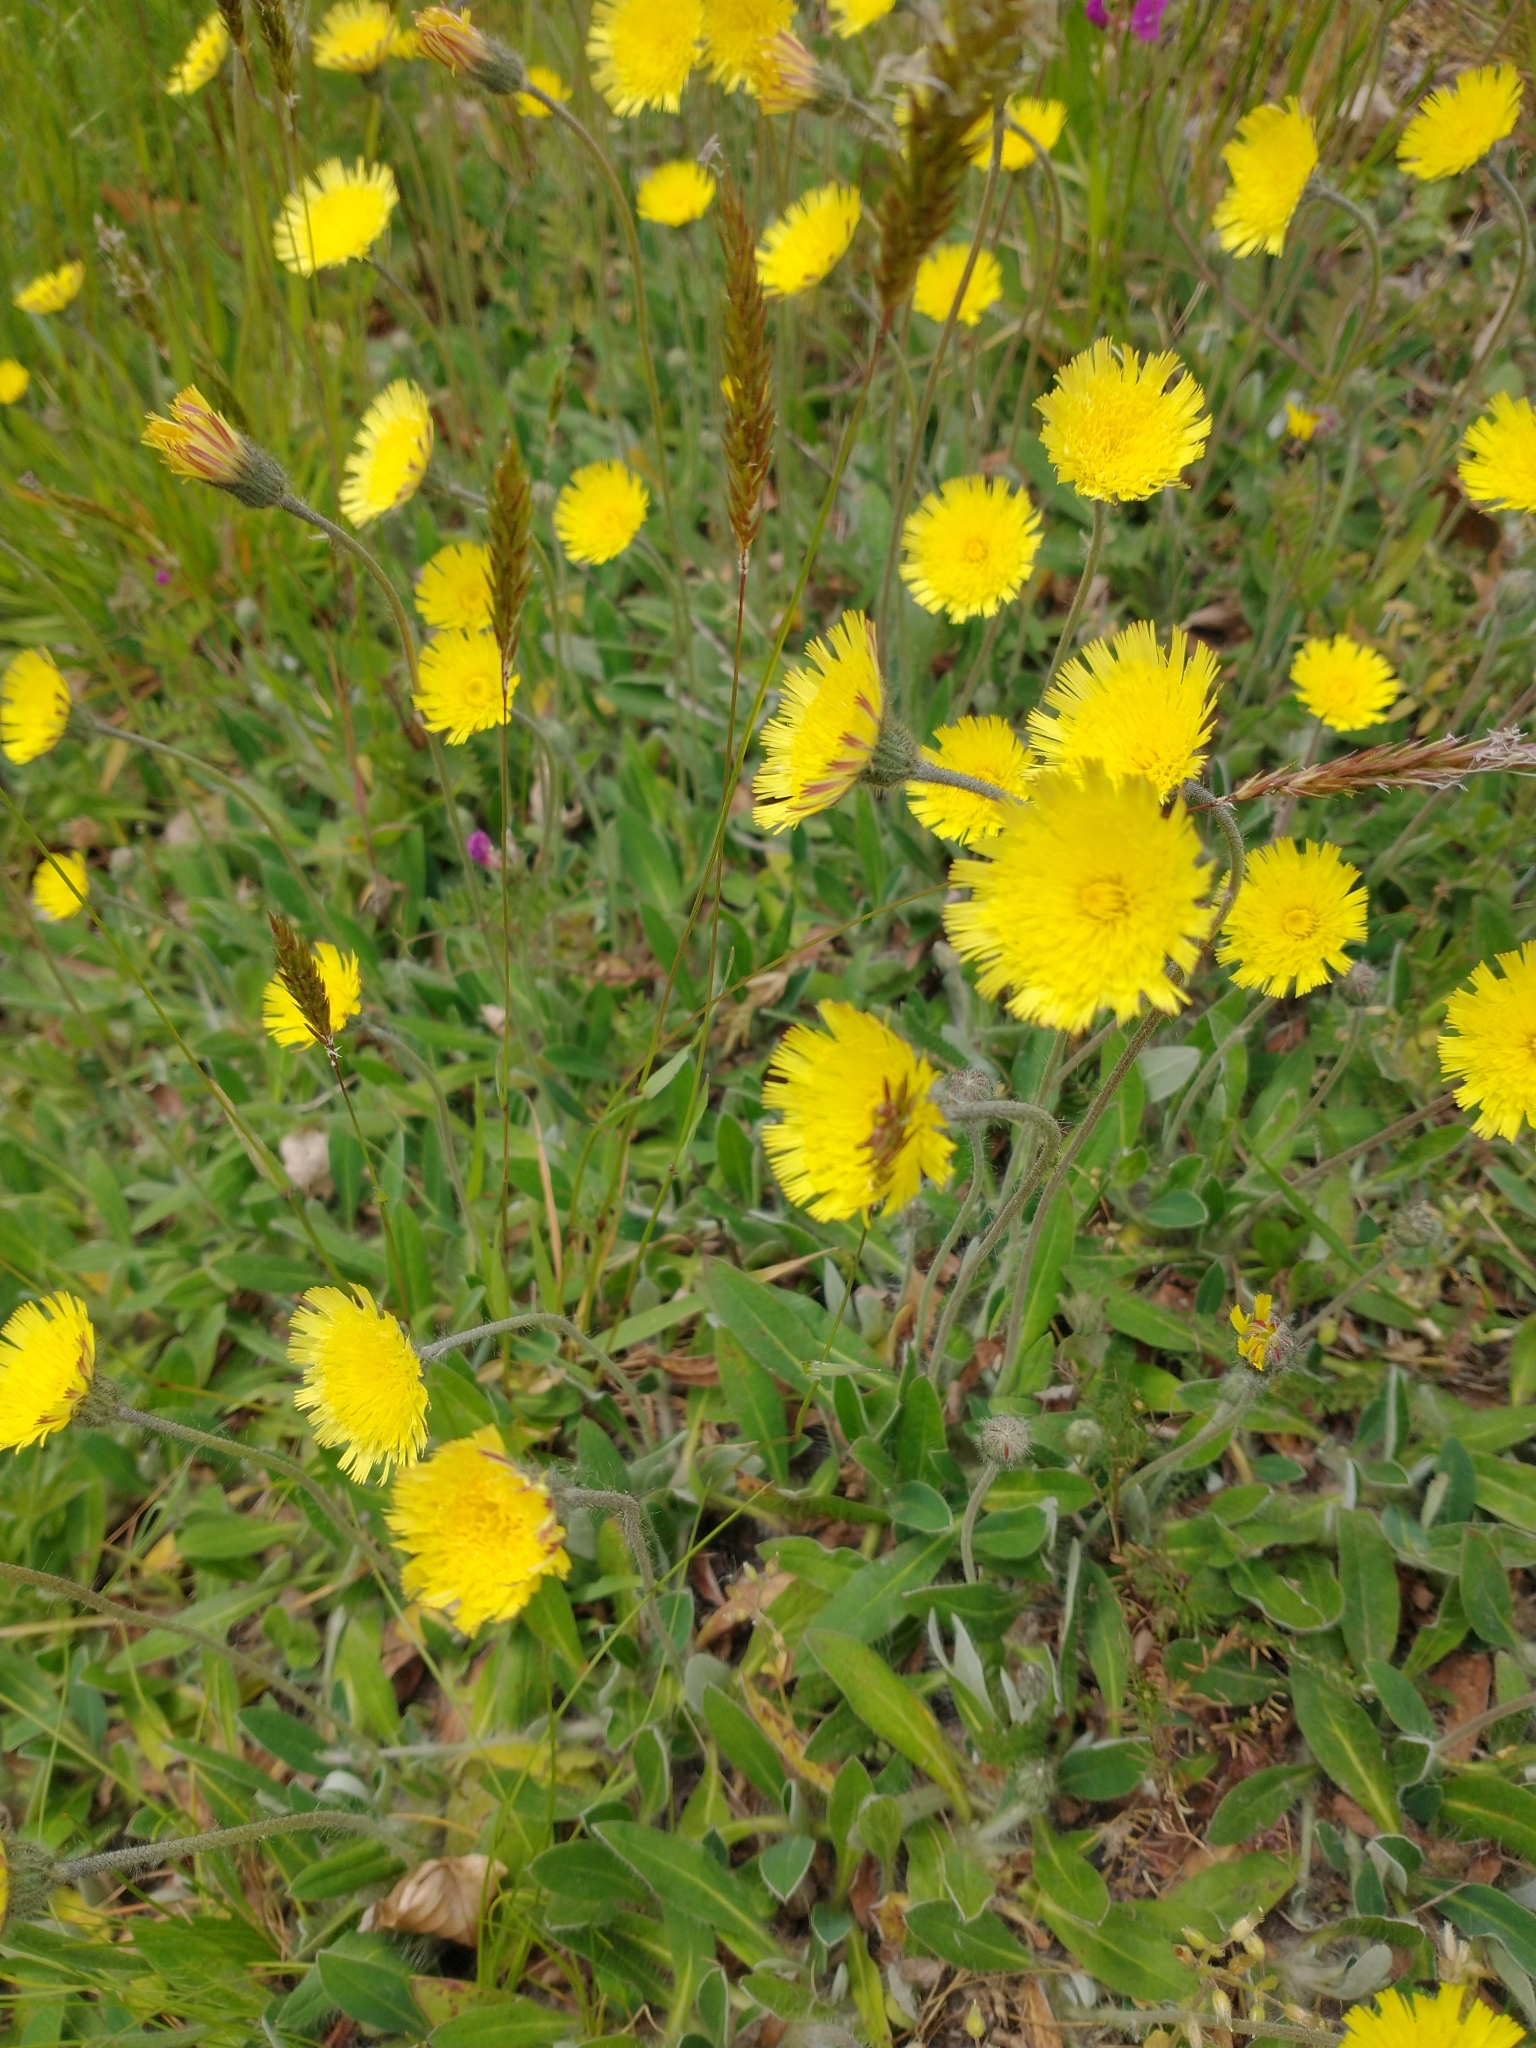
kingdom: Plantae
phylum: Tracheophyta
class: Magnoliopsida
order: Asterales
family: Asteraceae
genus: Pilosella
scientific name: Pilosella officinarum
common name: Mouse-ear hawkweed
